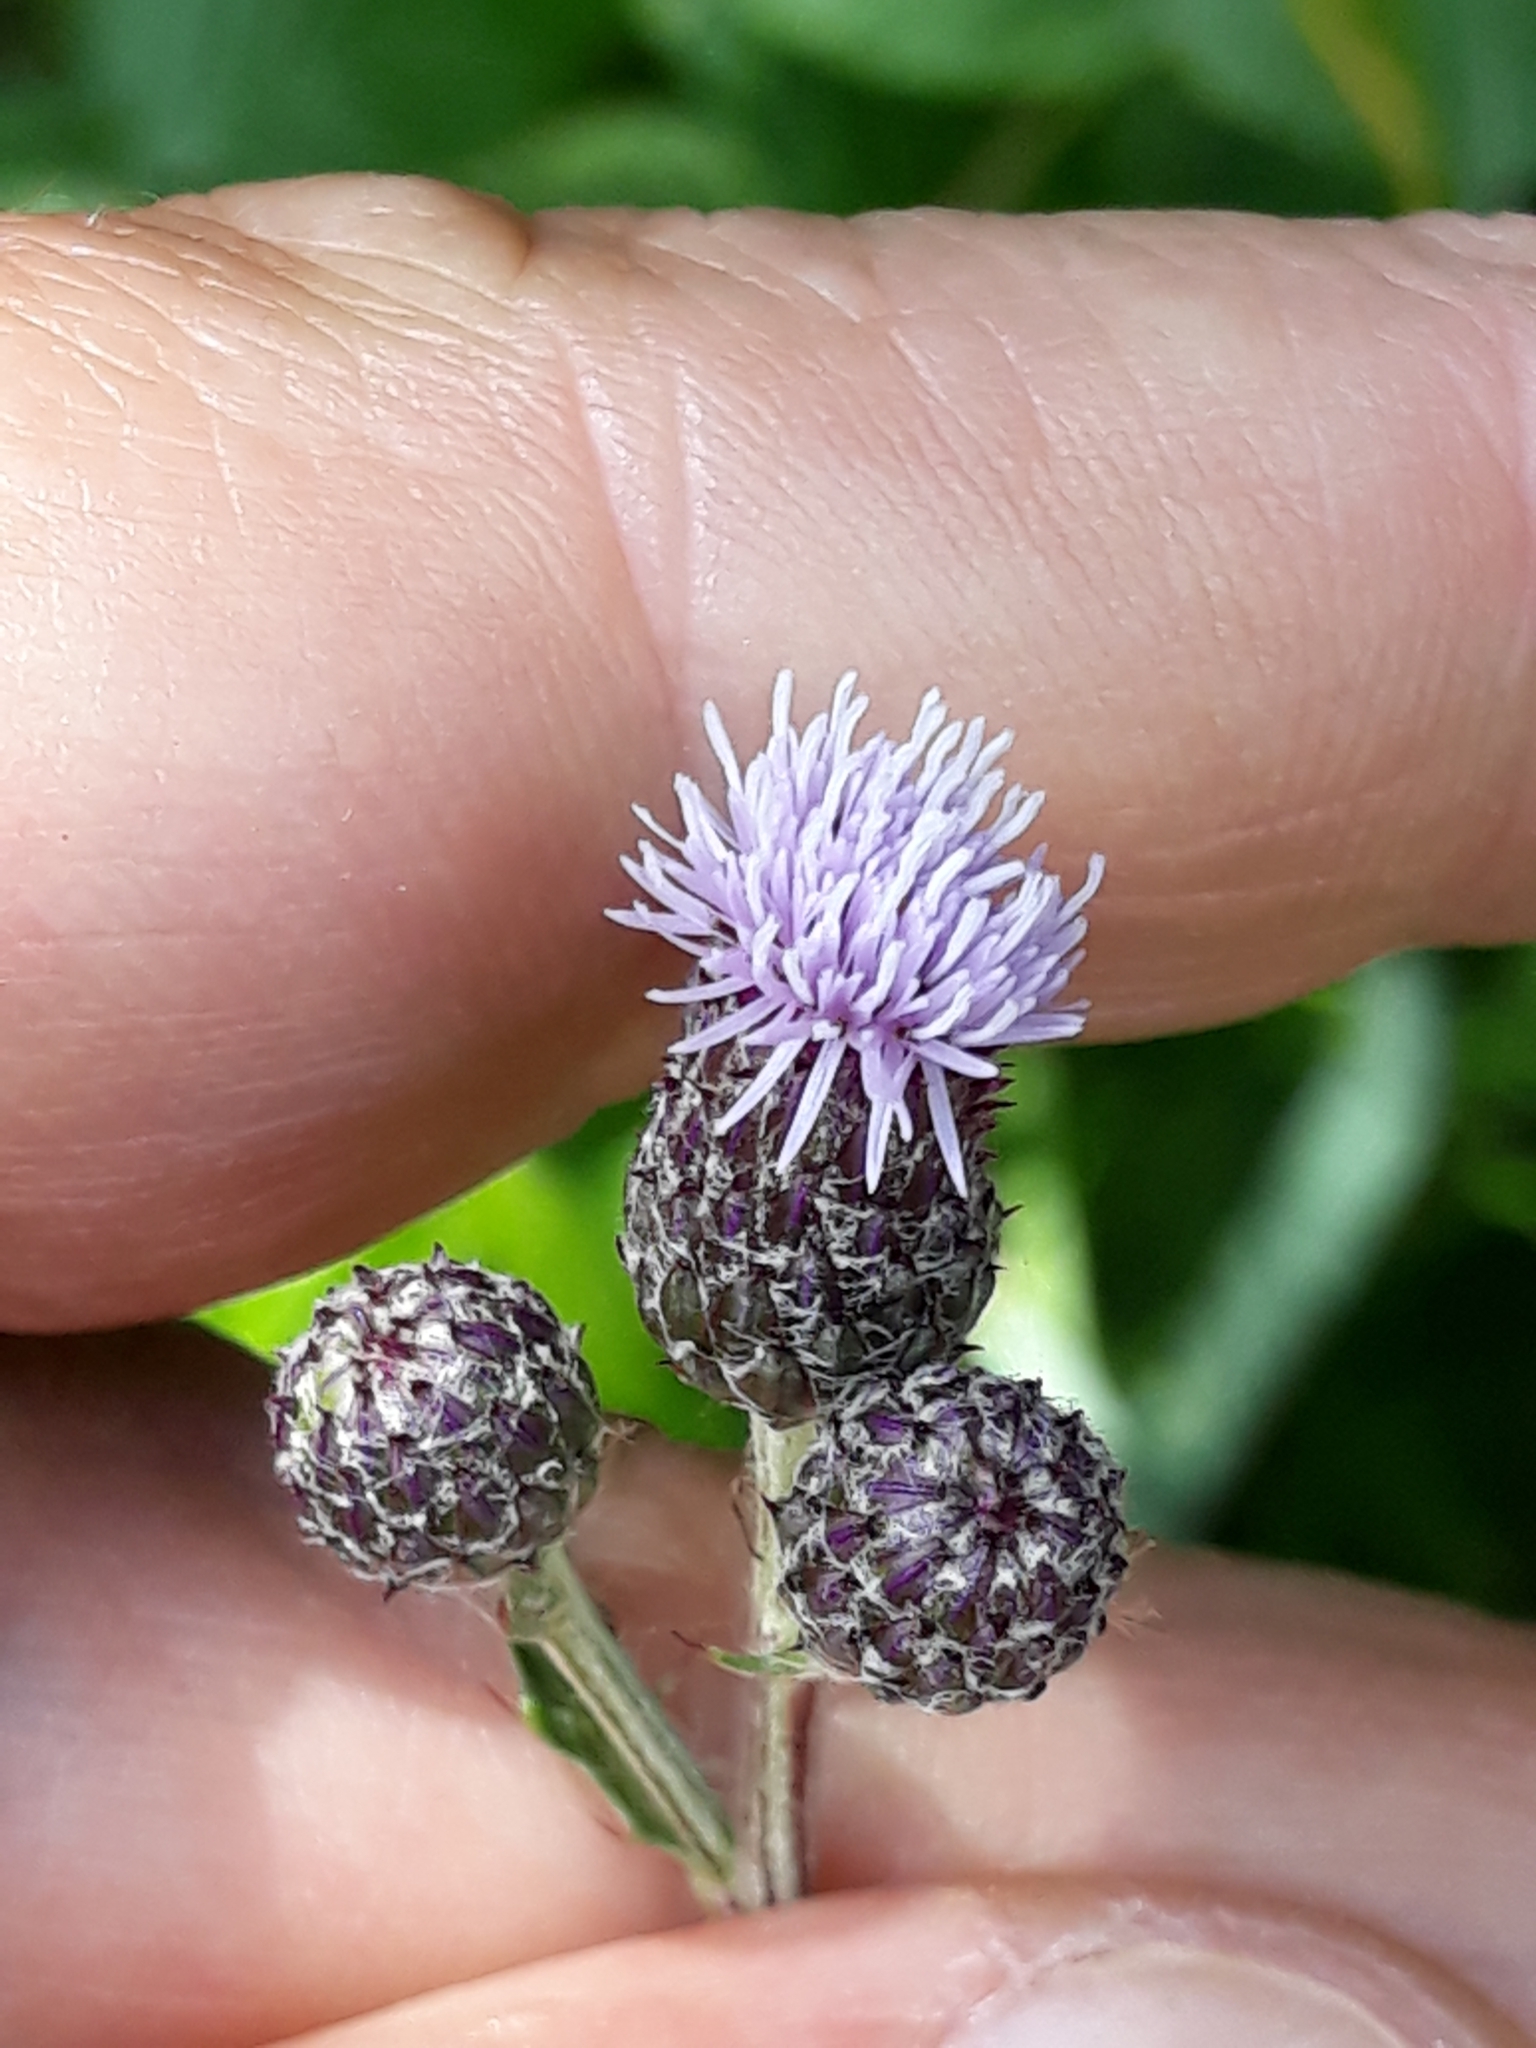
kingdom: Plantae
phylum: Tracheophyta
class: Magnoliopsida
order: Asterales
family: Asteraceae
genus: Cirsium
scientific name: Cirsium arvense
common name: Creeping thistle
